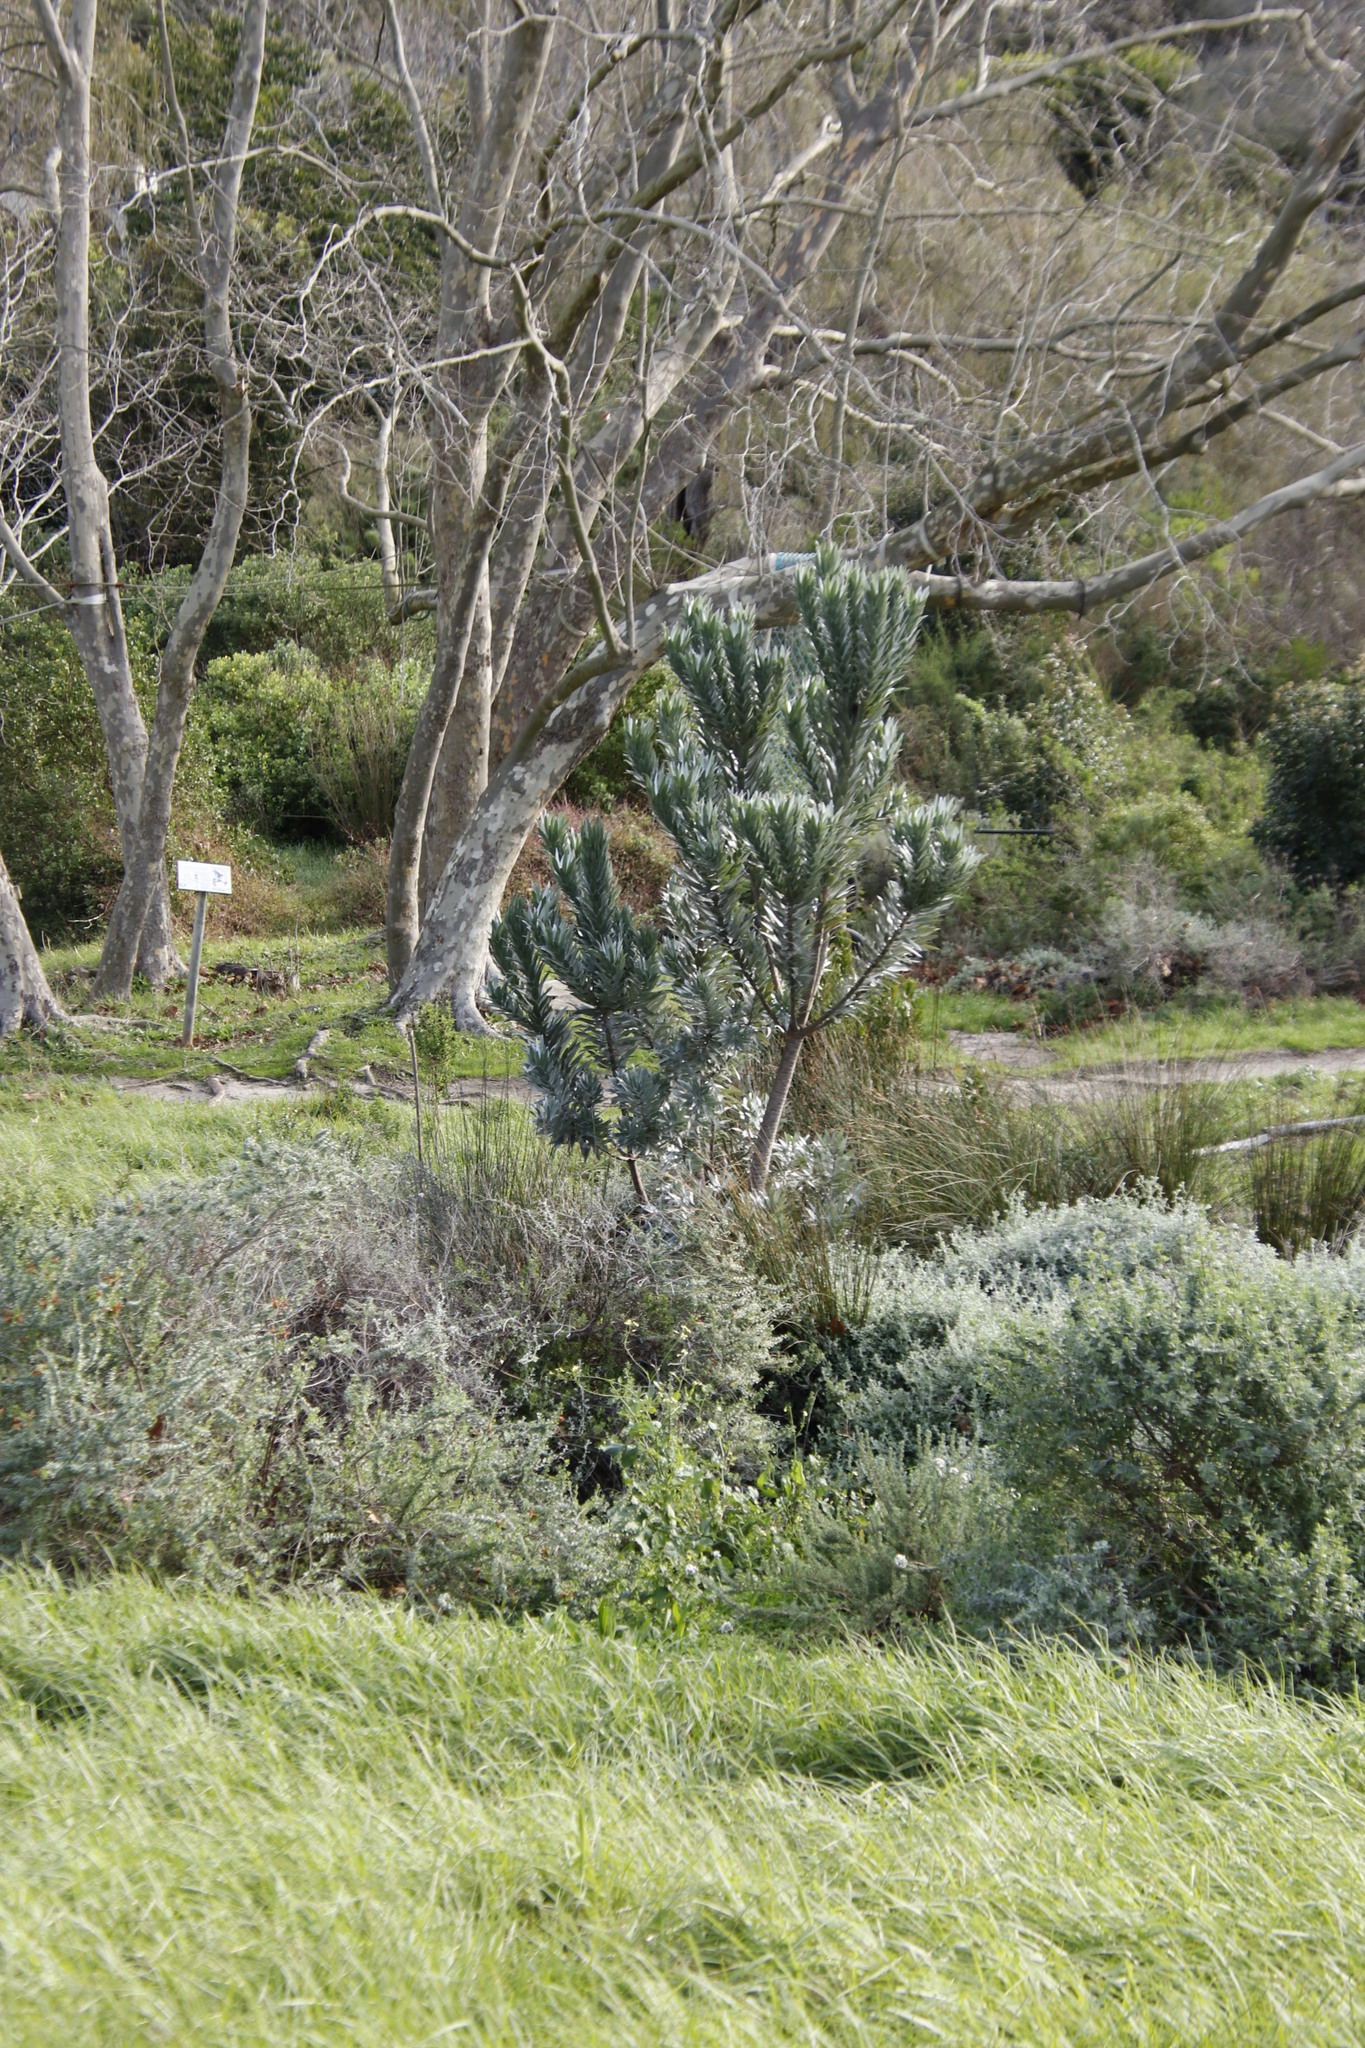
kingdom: Plantae
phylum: Tracheophyta
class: Magnoliopsida
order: Proteales
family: Proteaceae
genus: Leucadendron
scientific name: Leucadendron argenteum
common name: Cape silver tree
